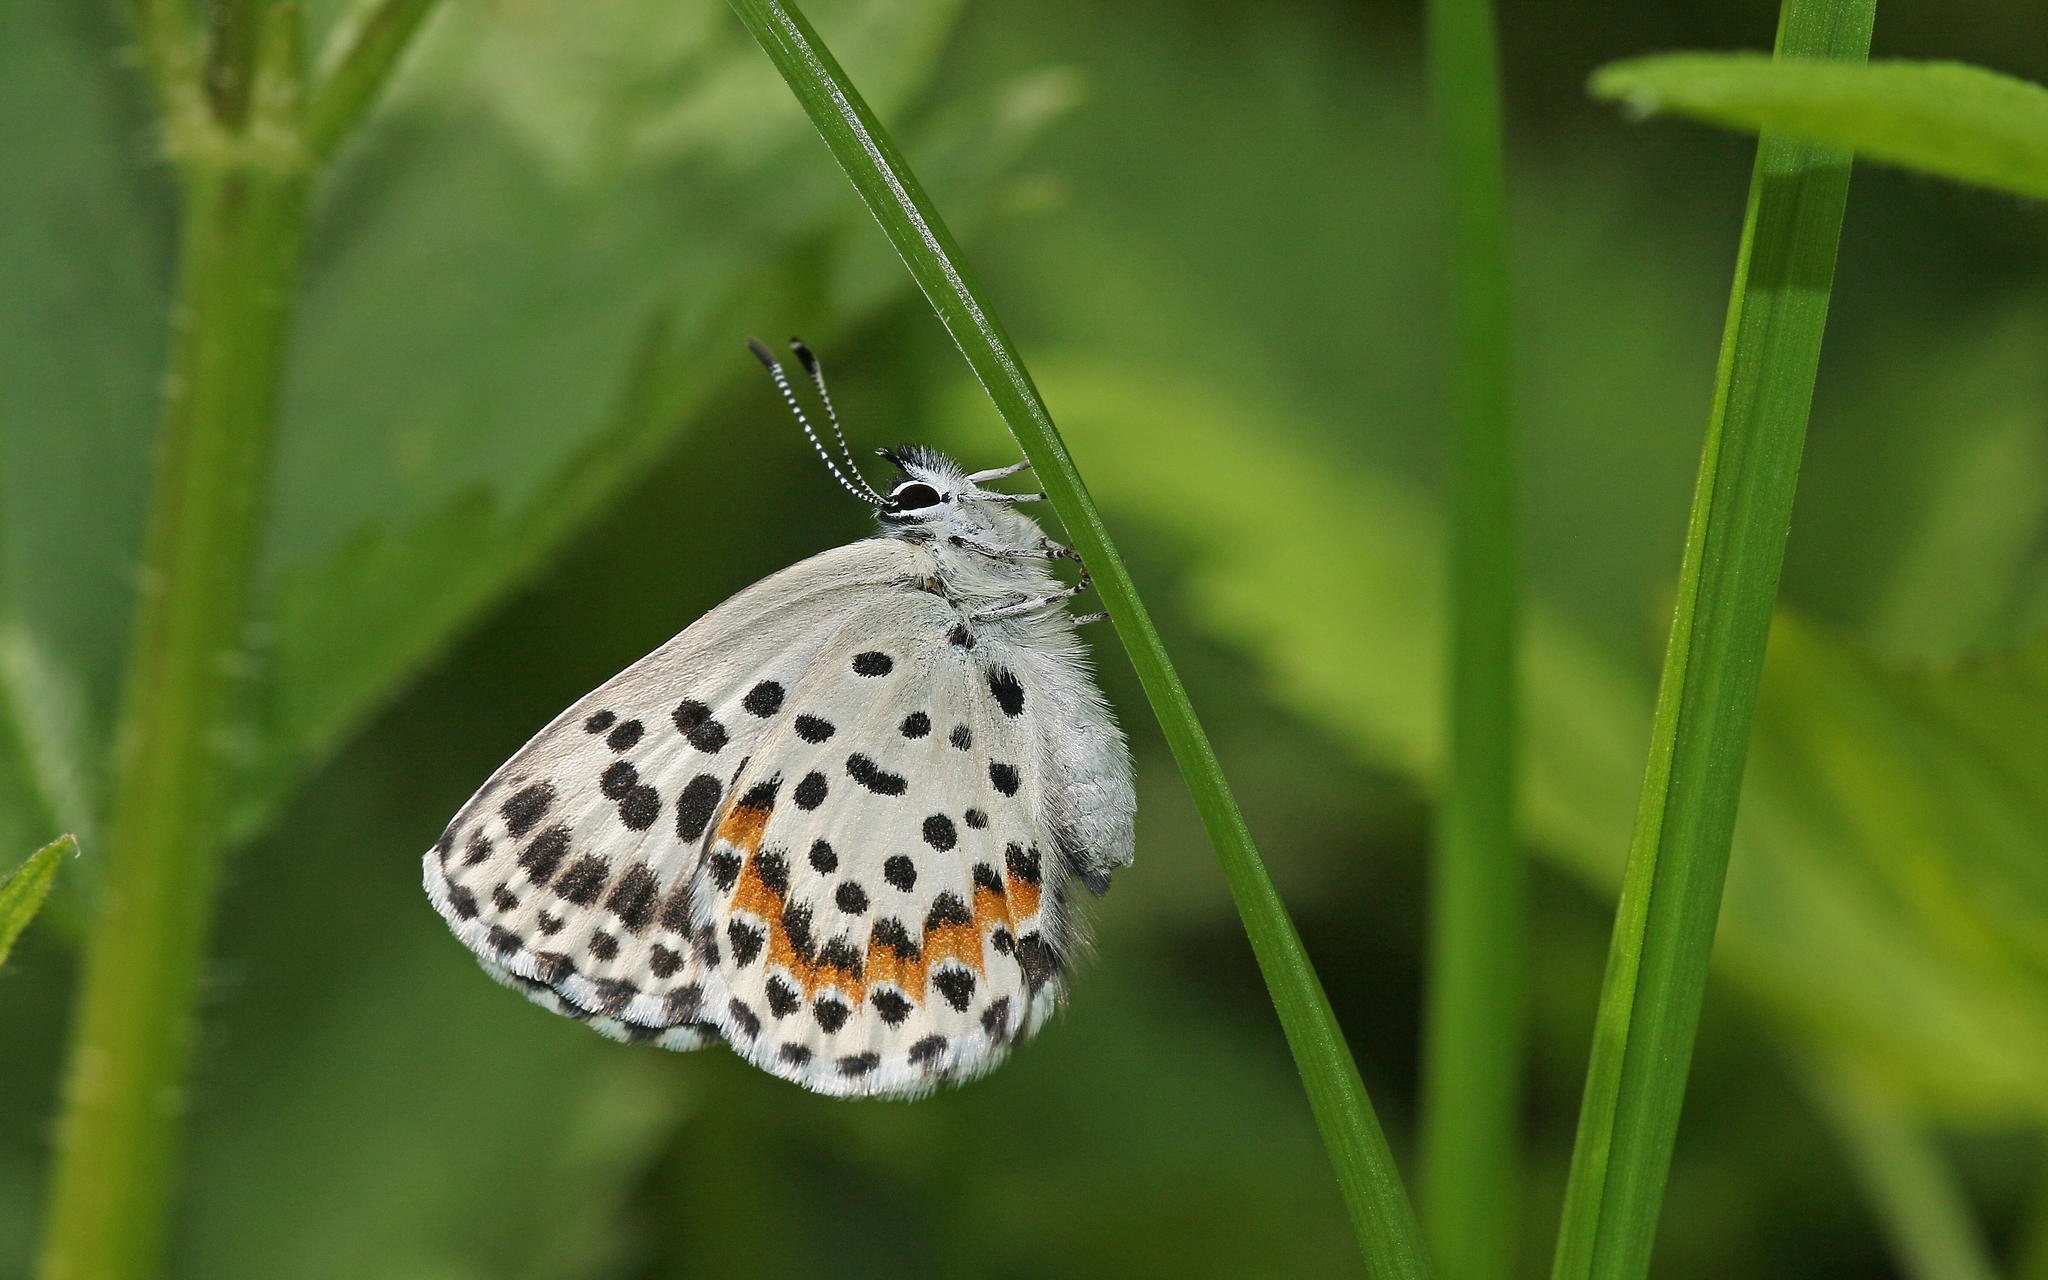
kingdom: Animalia
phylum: Arthropoda
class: Insecta
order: Lepidoptera
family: Lycaenidae
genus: Scolitantides
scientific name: Scolitantides orion
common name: Chequered blue
